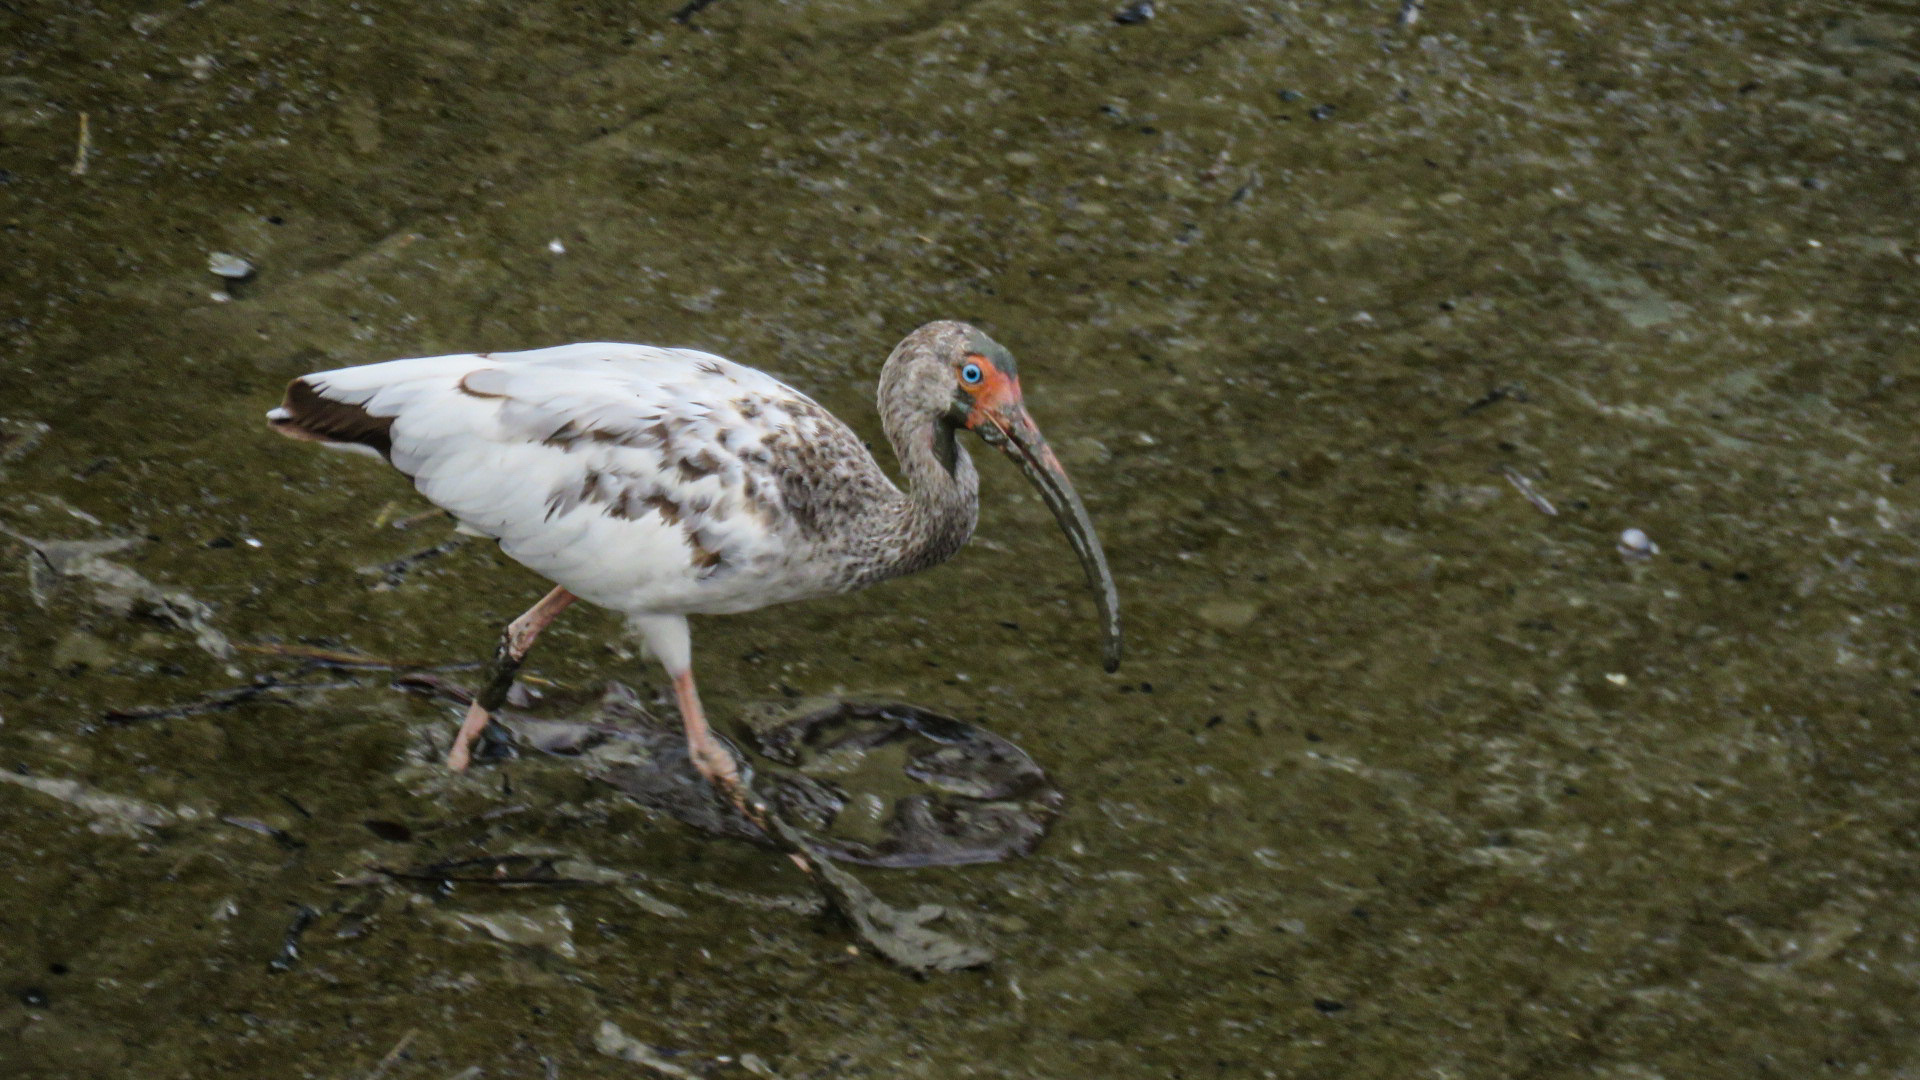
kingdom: Animalia
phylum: Chordata
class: Aves
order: Pelecaniformes
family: Threskiornithidae
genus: Eudocimus
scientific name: Eudocimus albus
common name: White ibis
